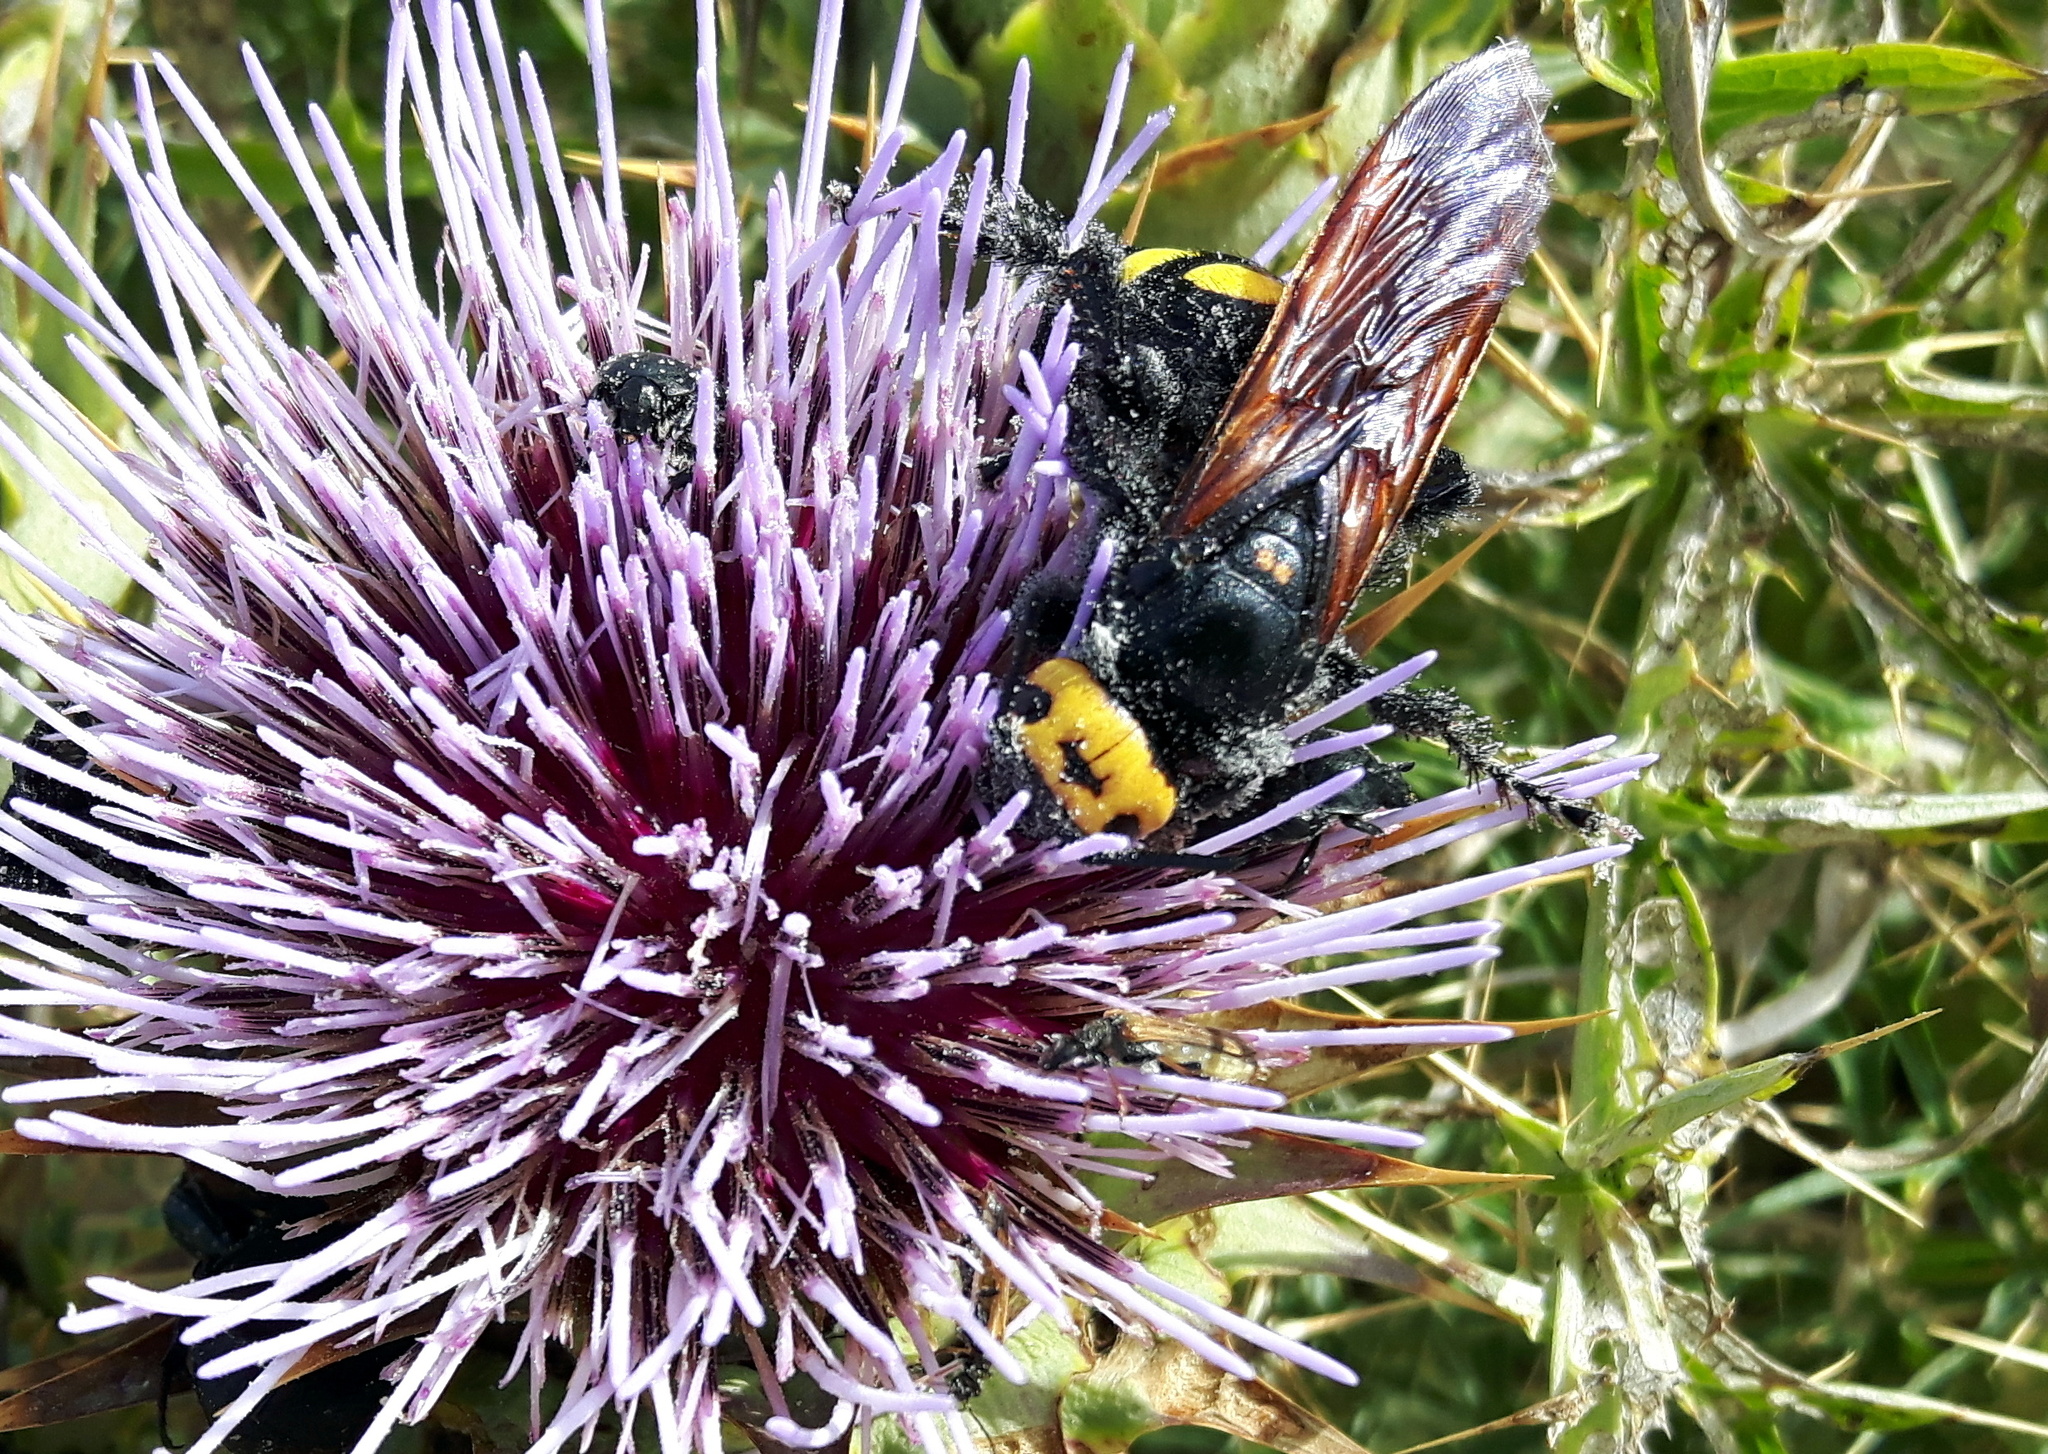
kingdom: Animalia
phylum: Arthropoda
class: Insecta
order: Hymenoptera
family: Scoliidae
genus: Megascolia
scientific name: Megascolia maculata
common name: Mammoth wasp
